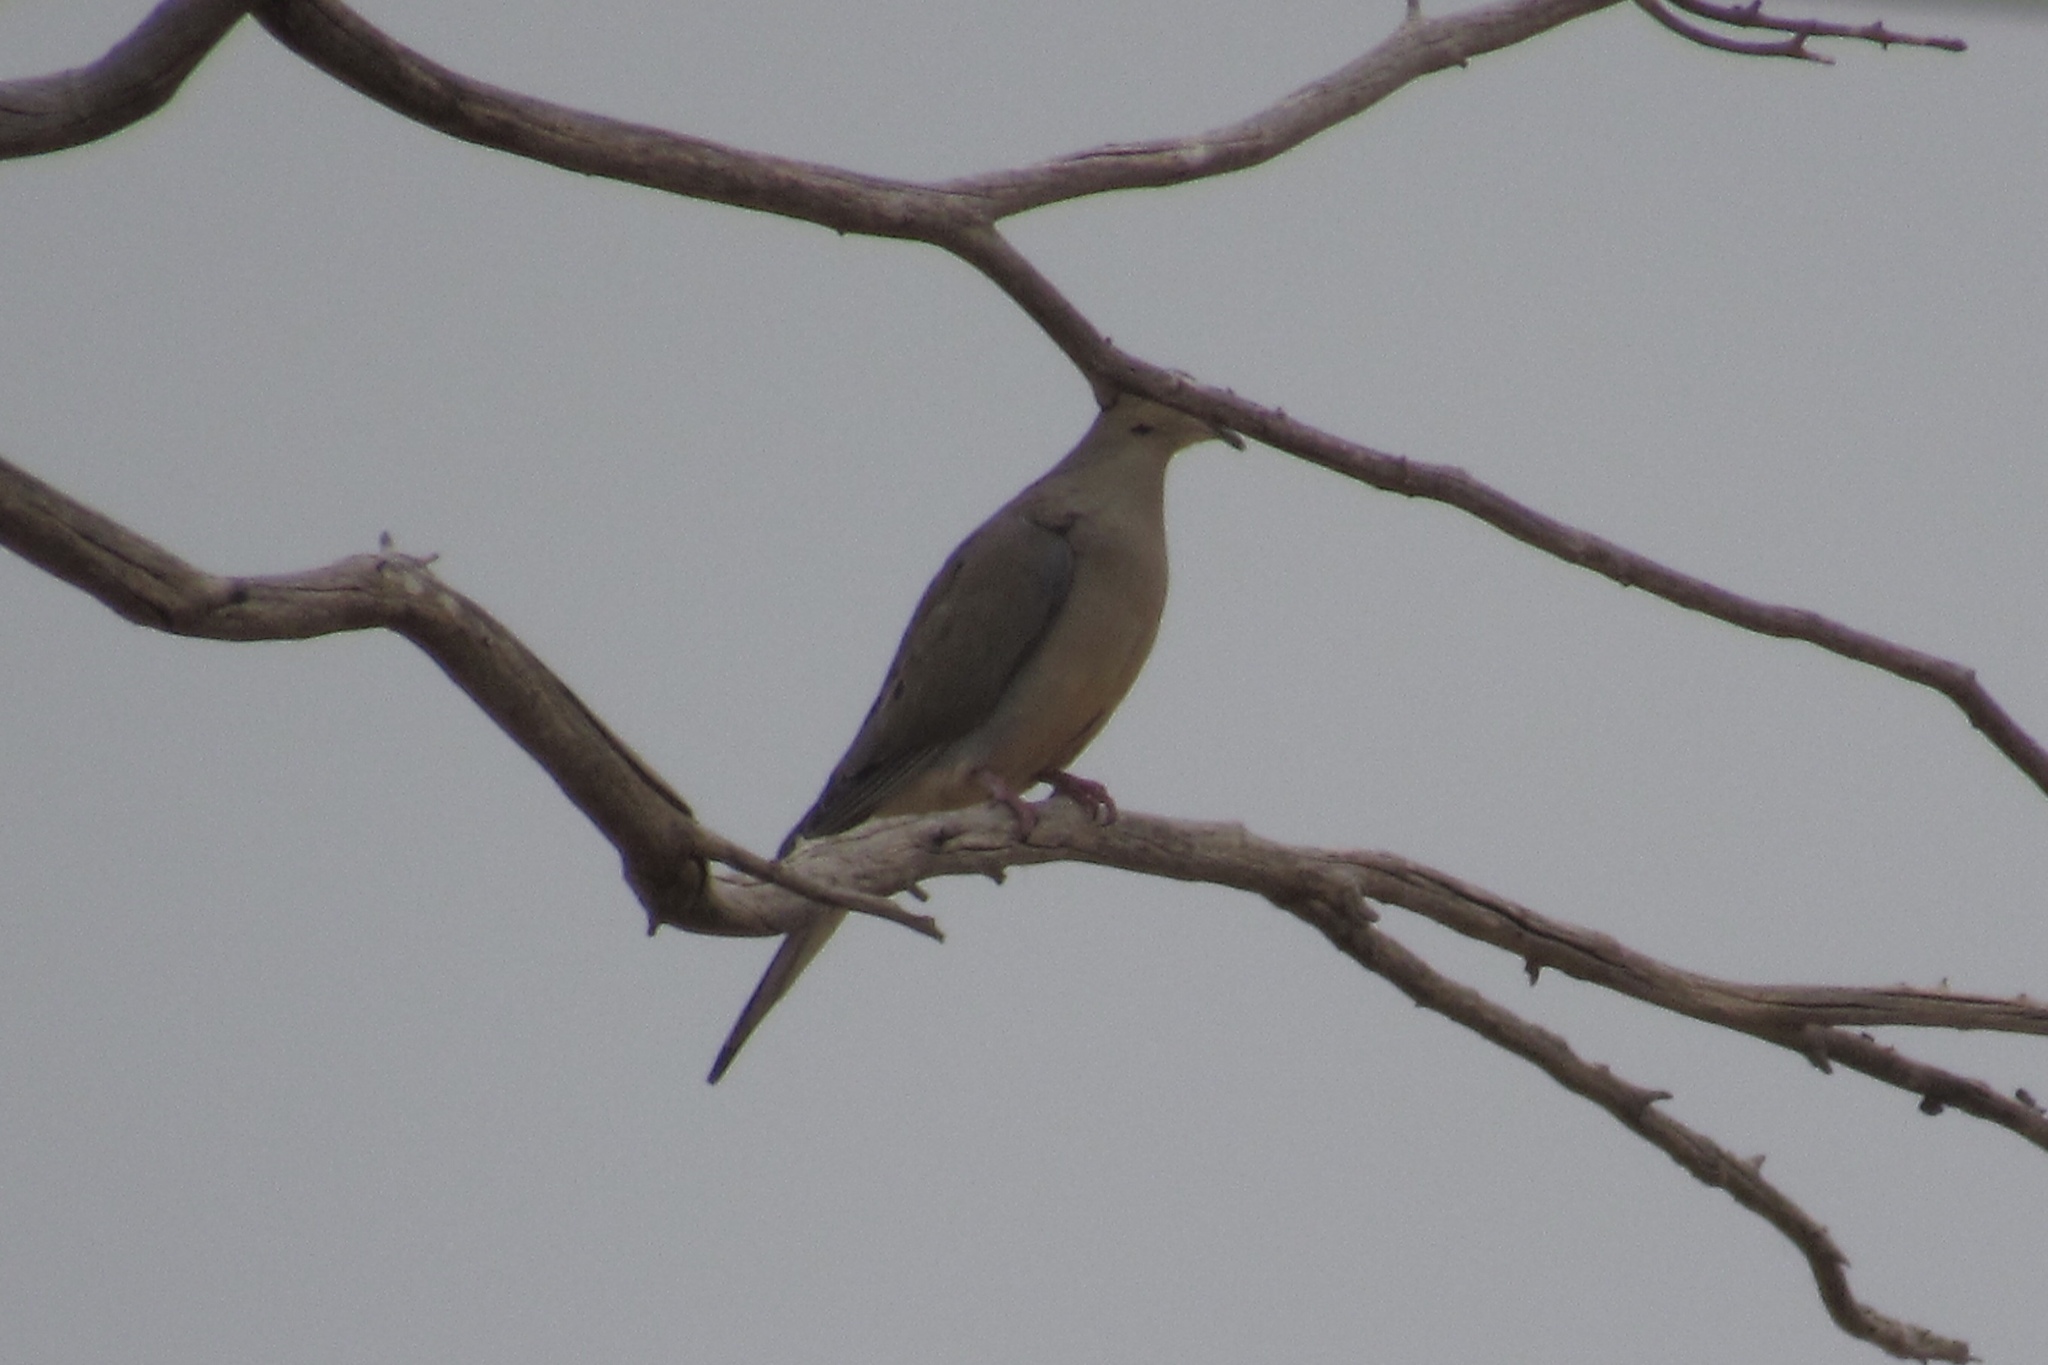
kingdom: Animalia
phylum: Chordata
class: Aves
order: Columbiformes
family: Columbidae
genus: Zenaida
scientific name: Zenaida macroura
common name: Mourning dove
